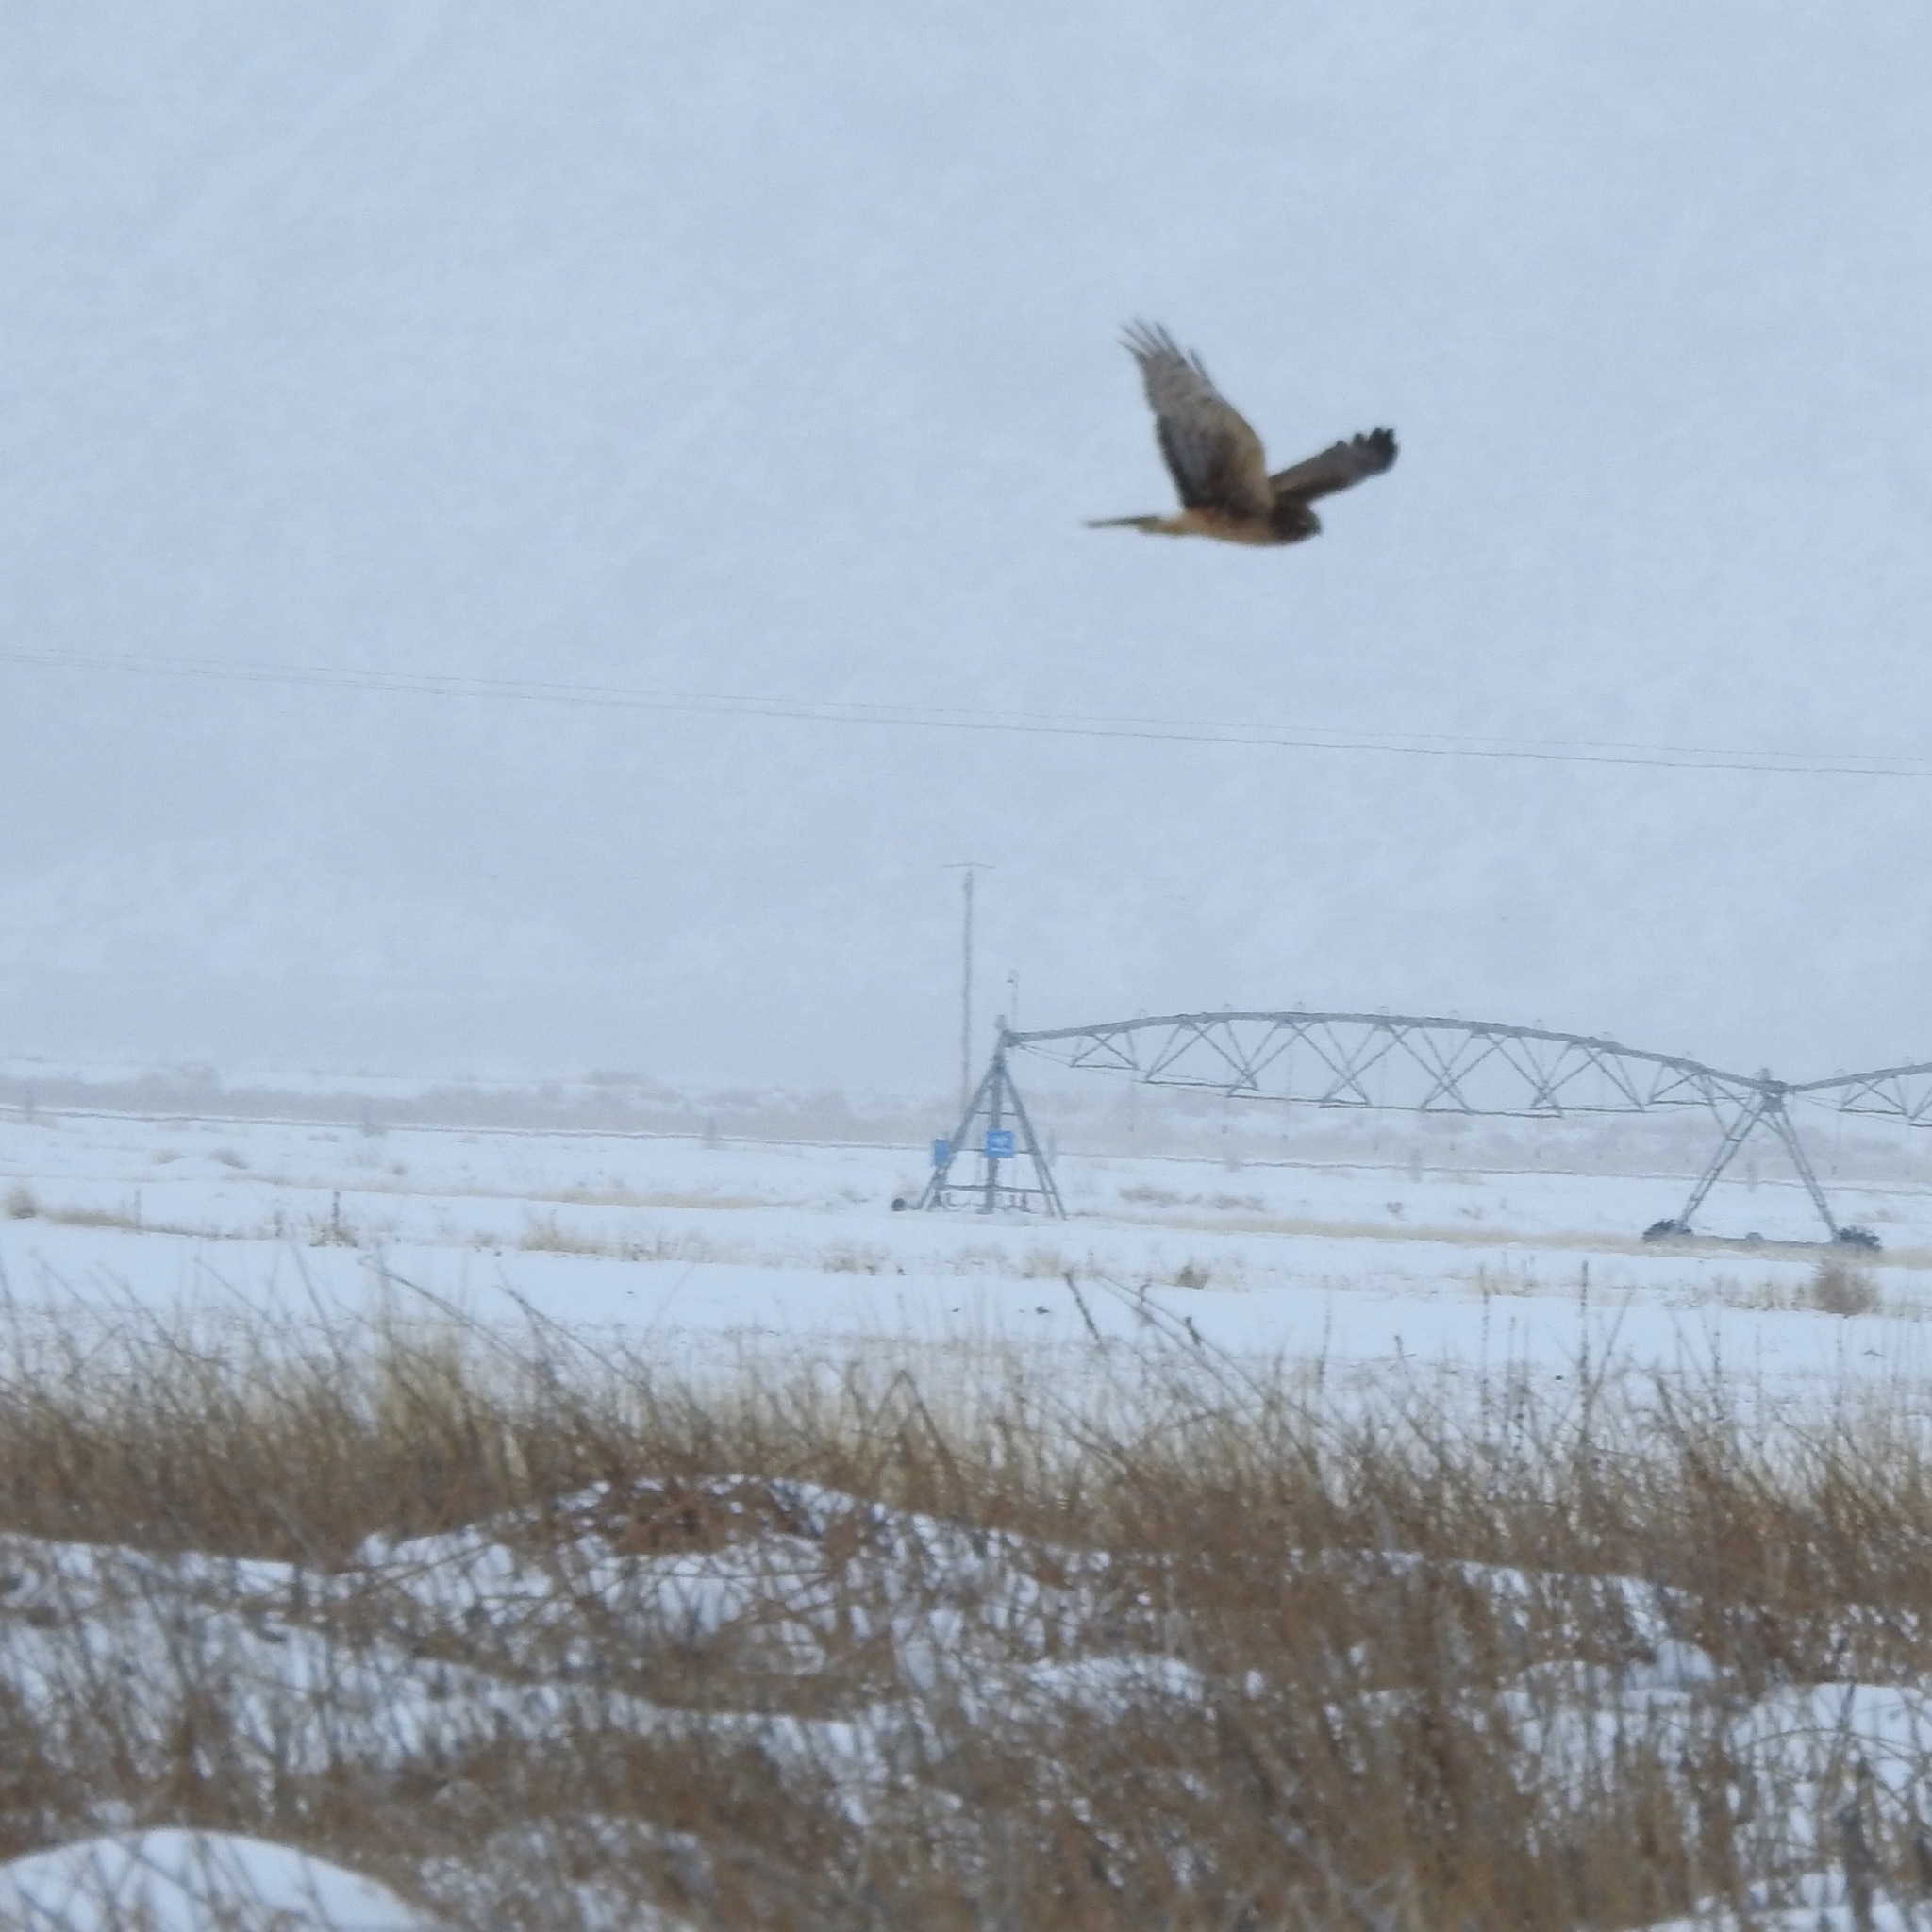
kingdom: Animalia
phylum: Chordata
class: Aves
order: Accipitriformes
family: Accipitridae
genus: Circus
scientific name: Circus cyaneus
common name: Hen harrier
